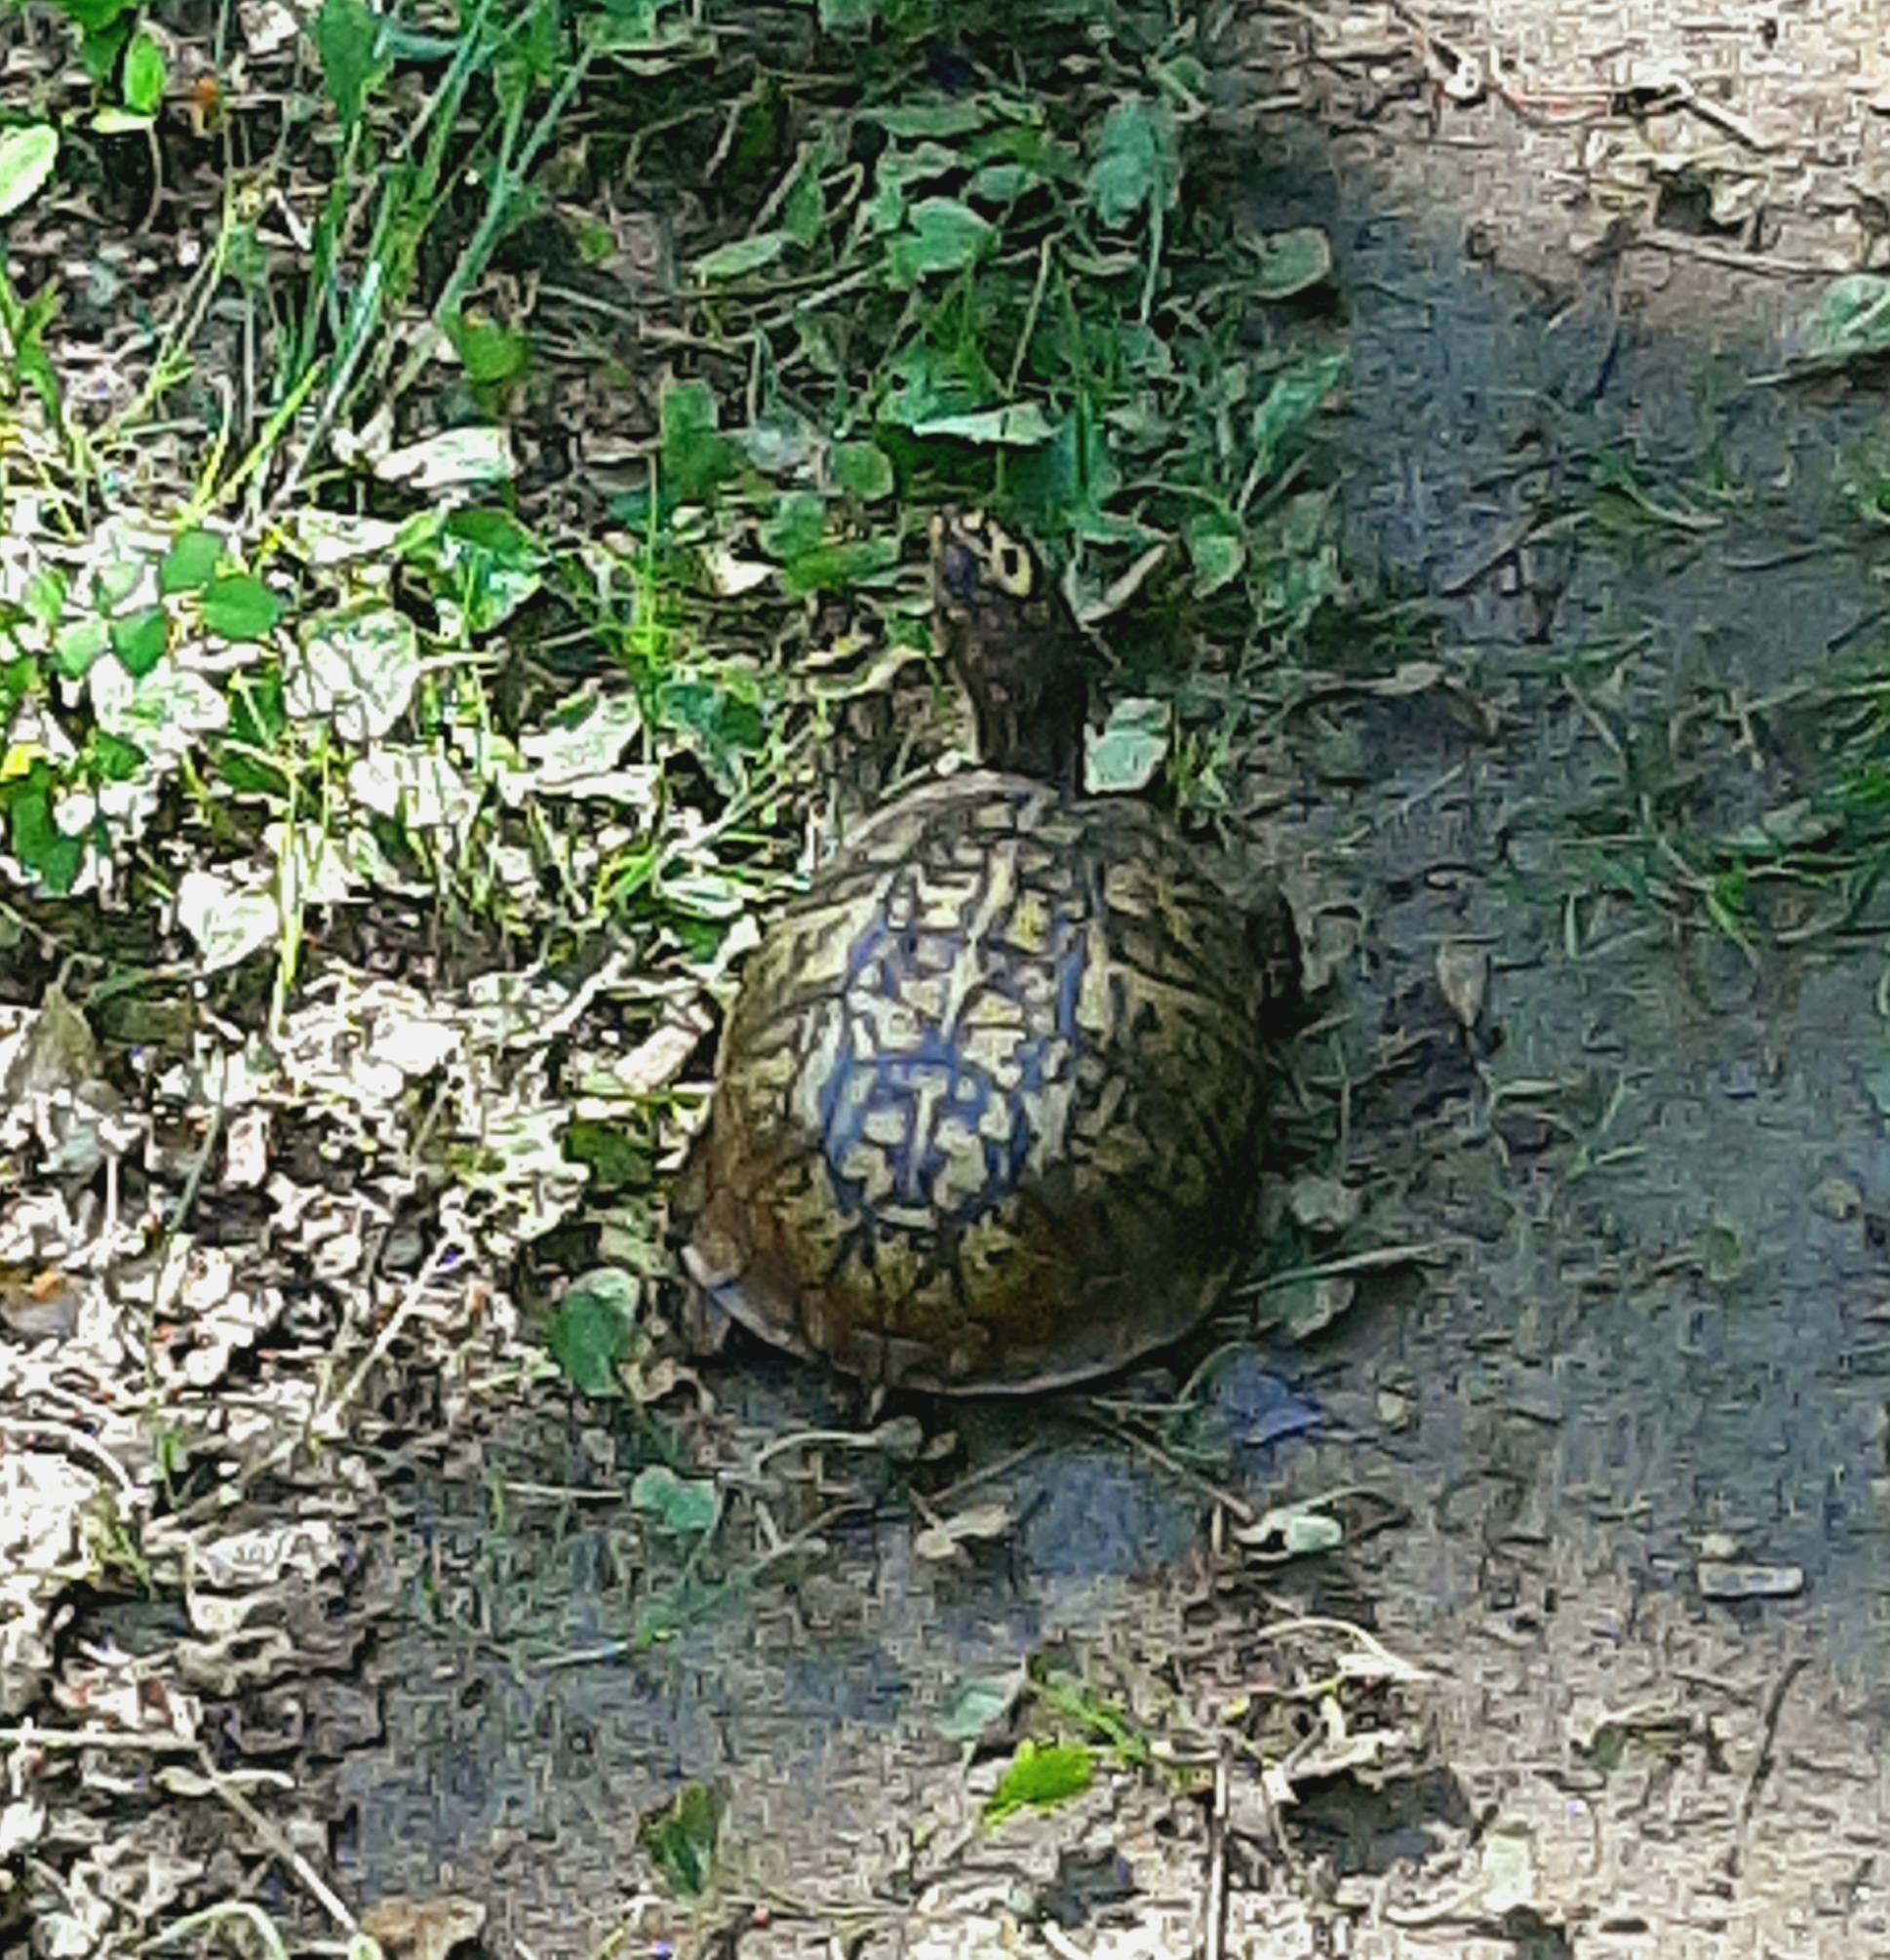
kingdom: Animalia
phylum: Chordata
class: Testudines
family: Emydidae
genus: Terrapene
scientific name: Terrapene carolina
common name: Common box turtle
